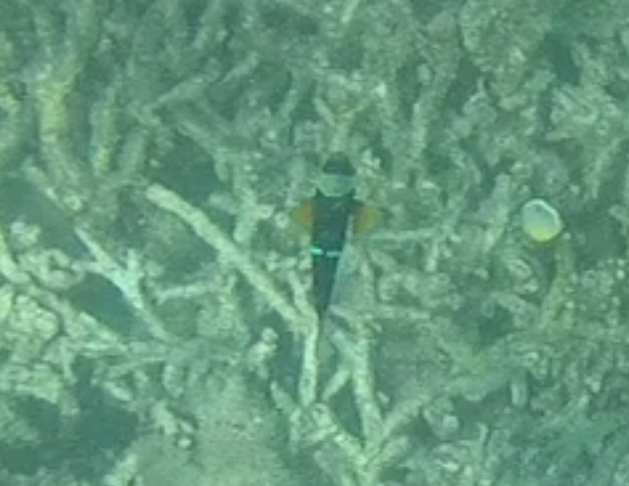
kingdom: Animalia
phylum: Chordata
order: Perciformes
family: Pomacentridae
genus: Amphiprion
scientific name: Amphiprion allardi
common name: Allard's anemonefish
